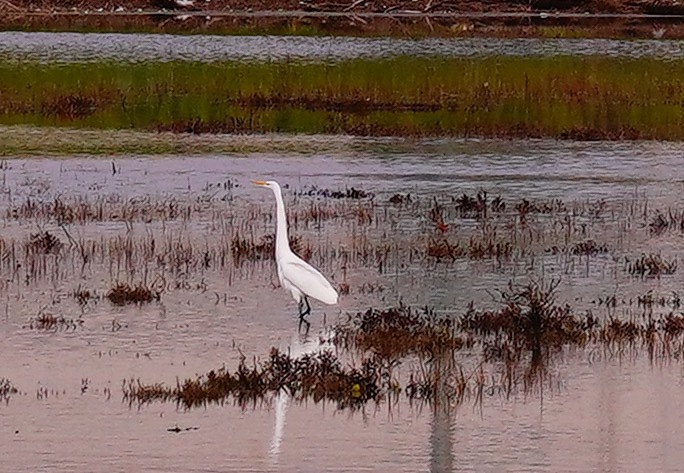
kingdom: Animalia
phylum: Chordata
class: Aves
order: Pelecaniformes
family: Ardeidae
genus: Ardea
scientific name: Ardea alba
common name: Great egret
